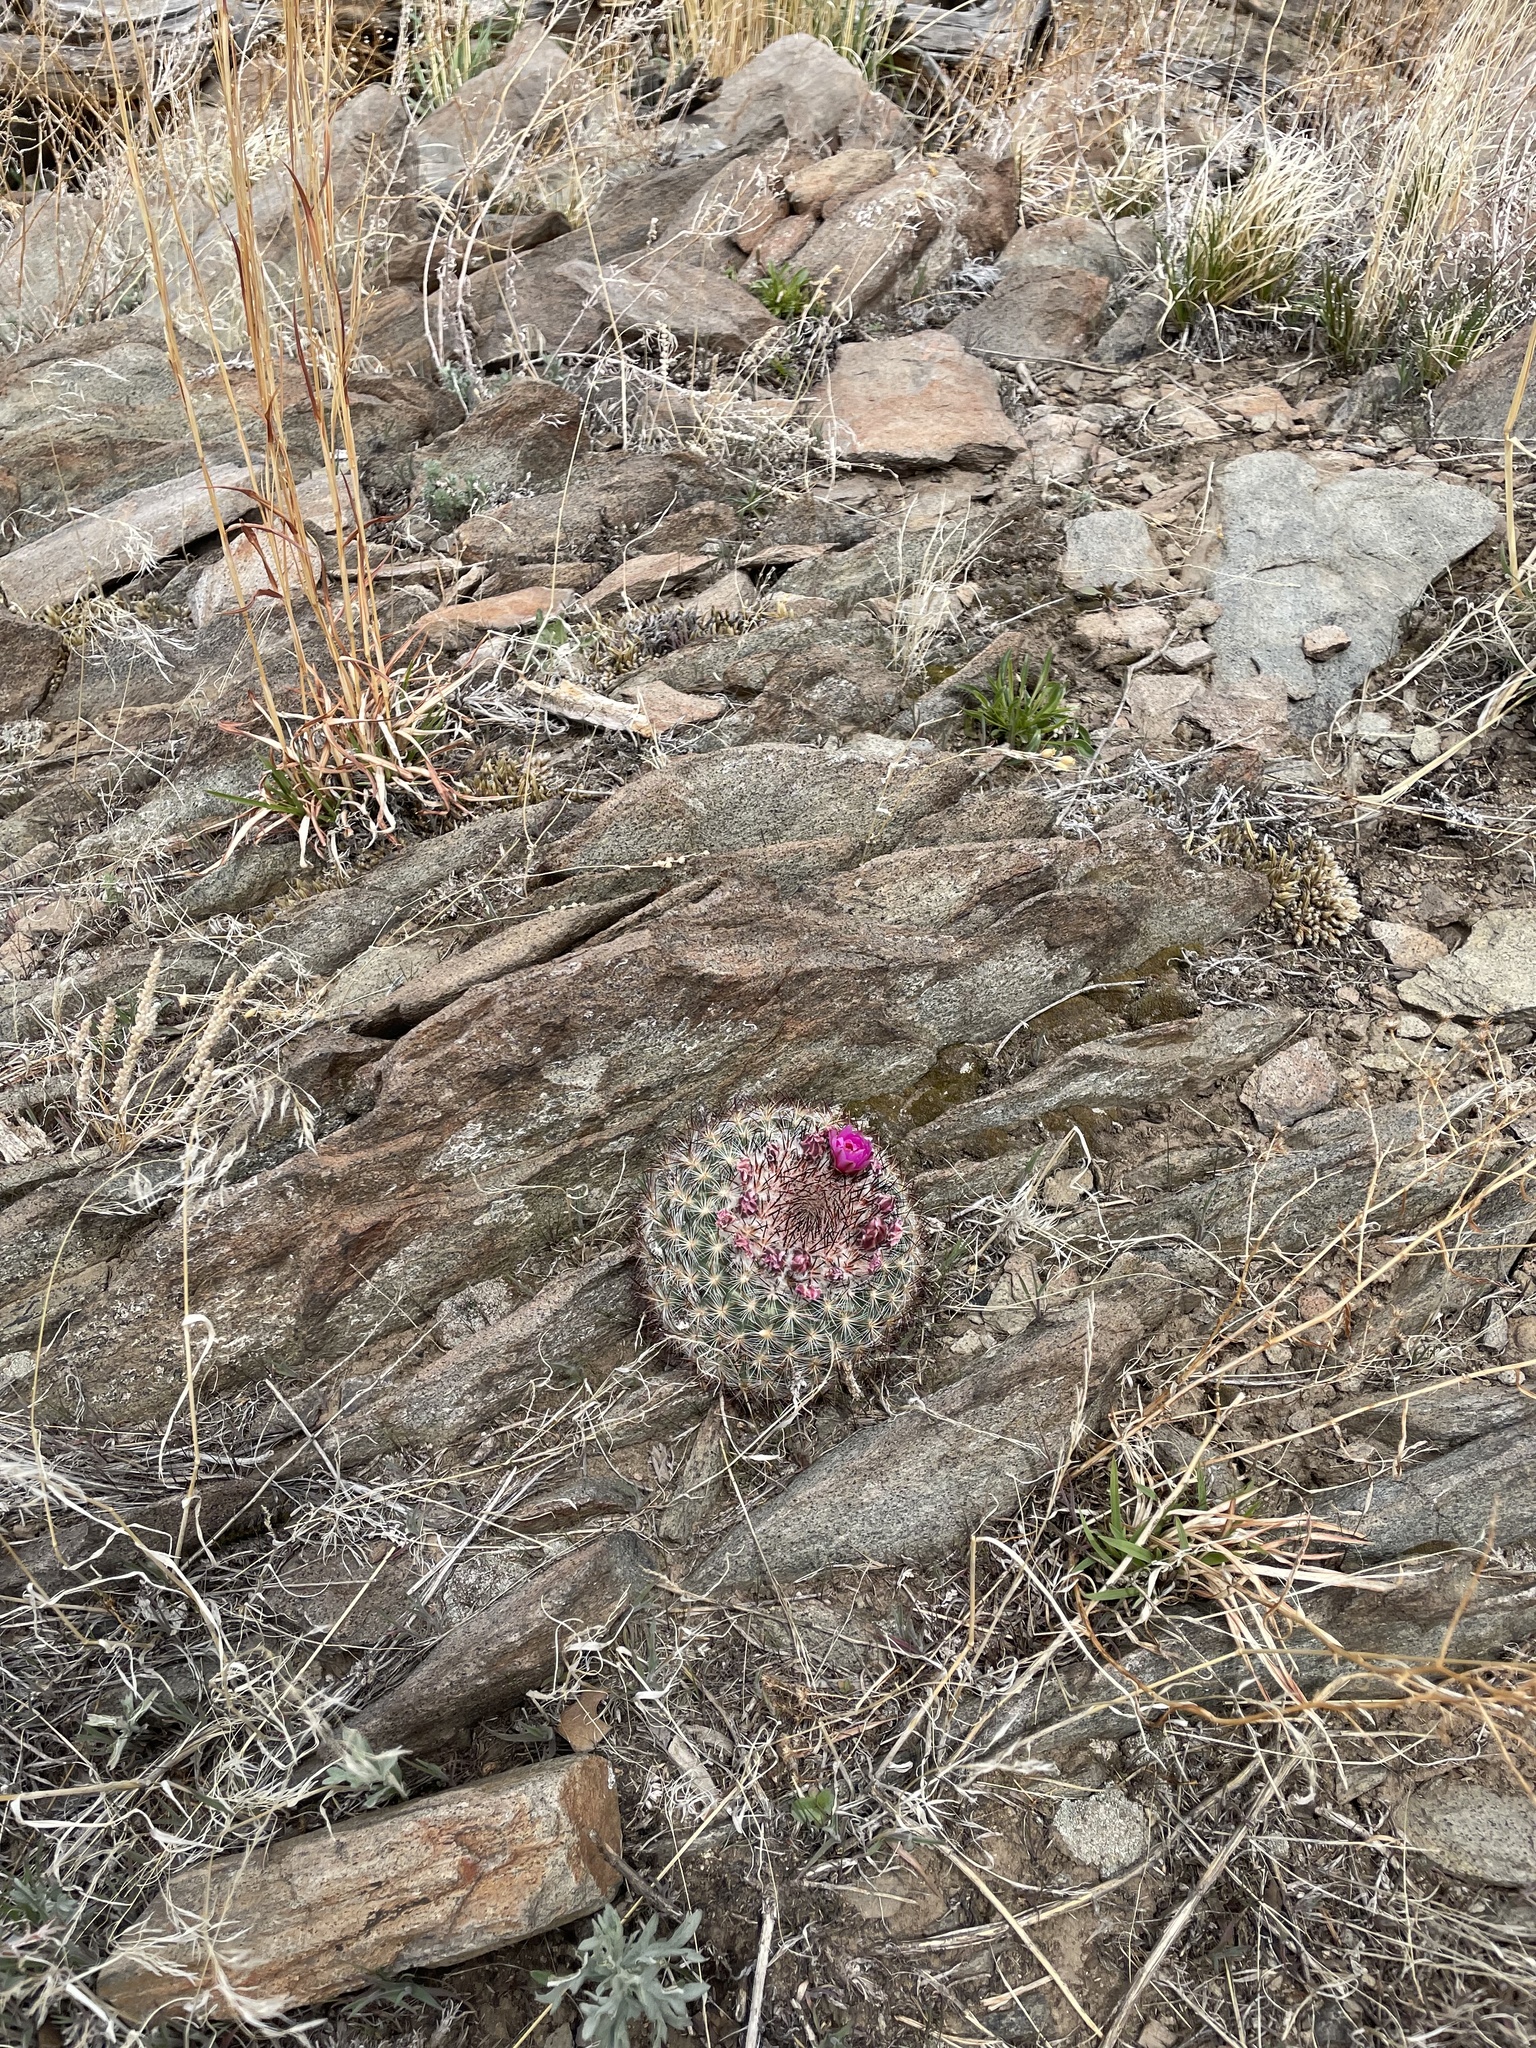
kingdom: Plantae
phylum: Tracheophyta
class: Magnoliopsida
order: Caryophyllales
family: Cactaceae
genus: Pediocactus
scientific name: Pediocactus simpsonii
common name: Simpson's hedgehog cactus
